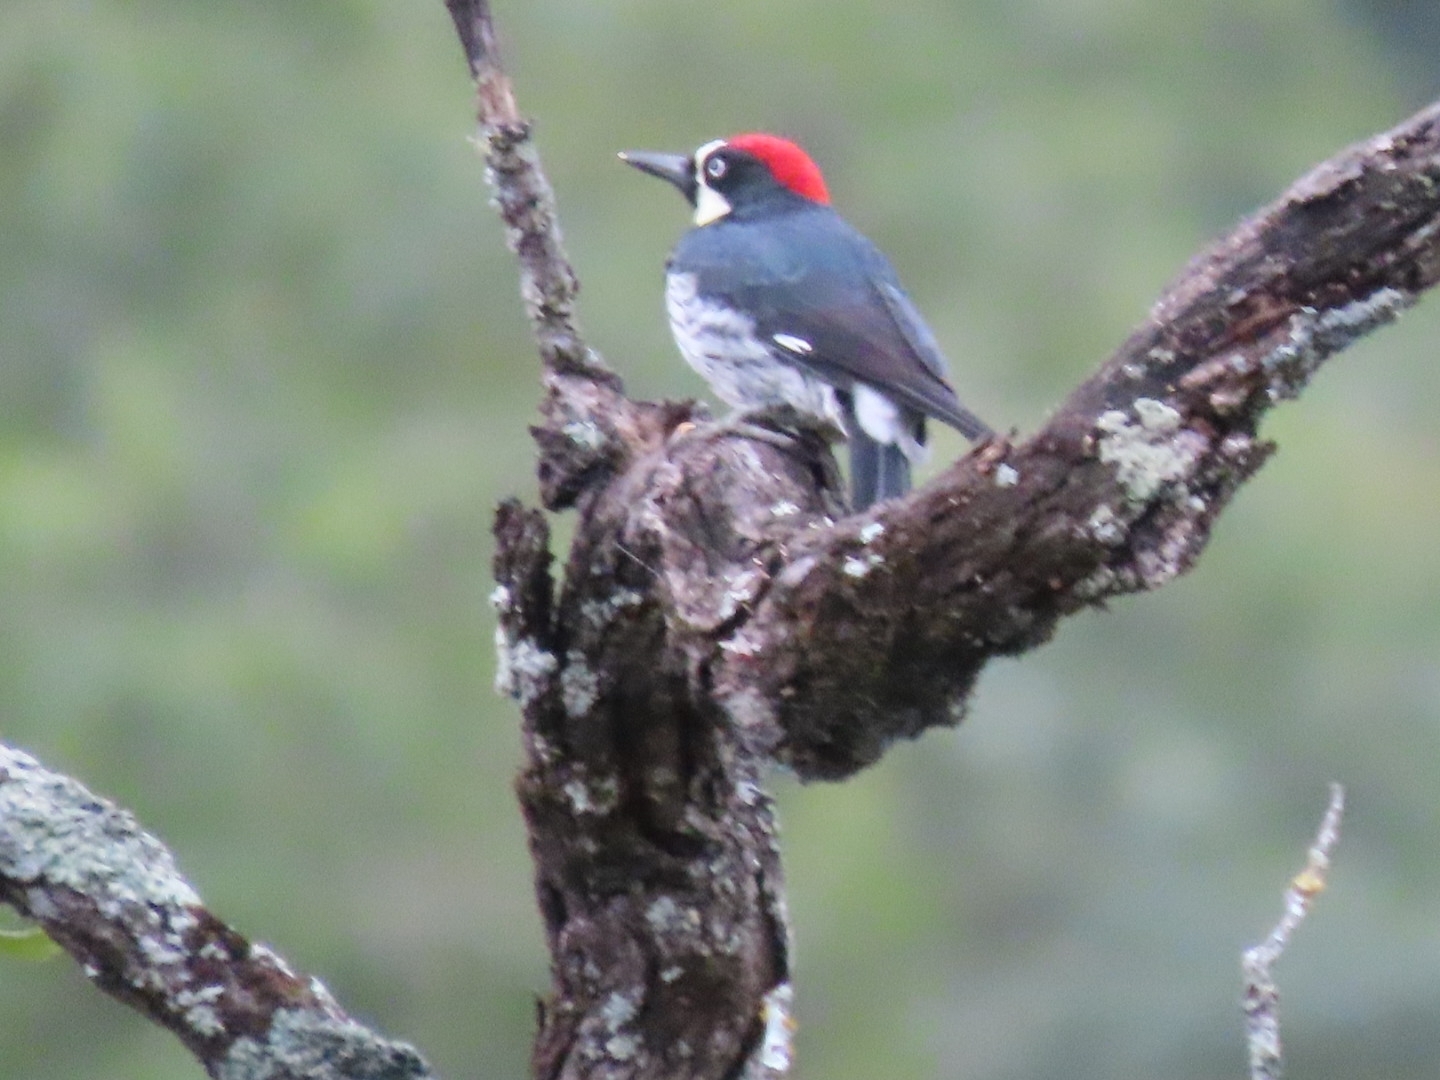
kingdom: Animalia
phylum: Chordata
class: Aves
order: Piciformes
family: Picidae
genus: Melanerpes
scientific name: Melanerpes formicivorus
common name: Acorn woodpecker
